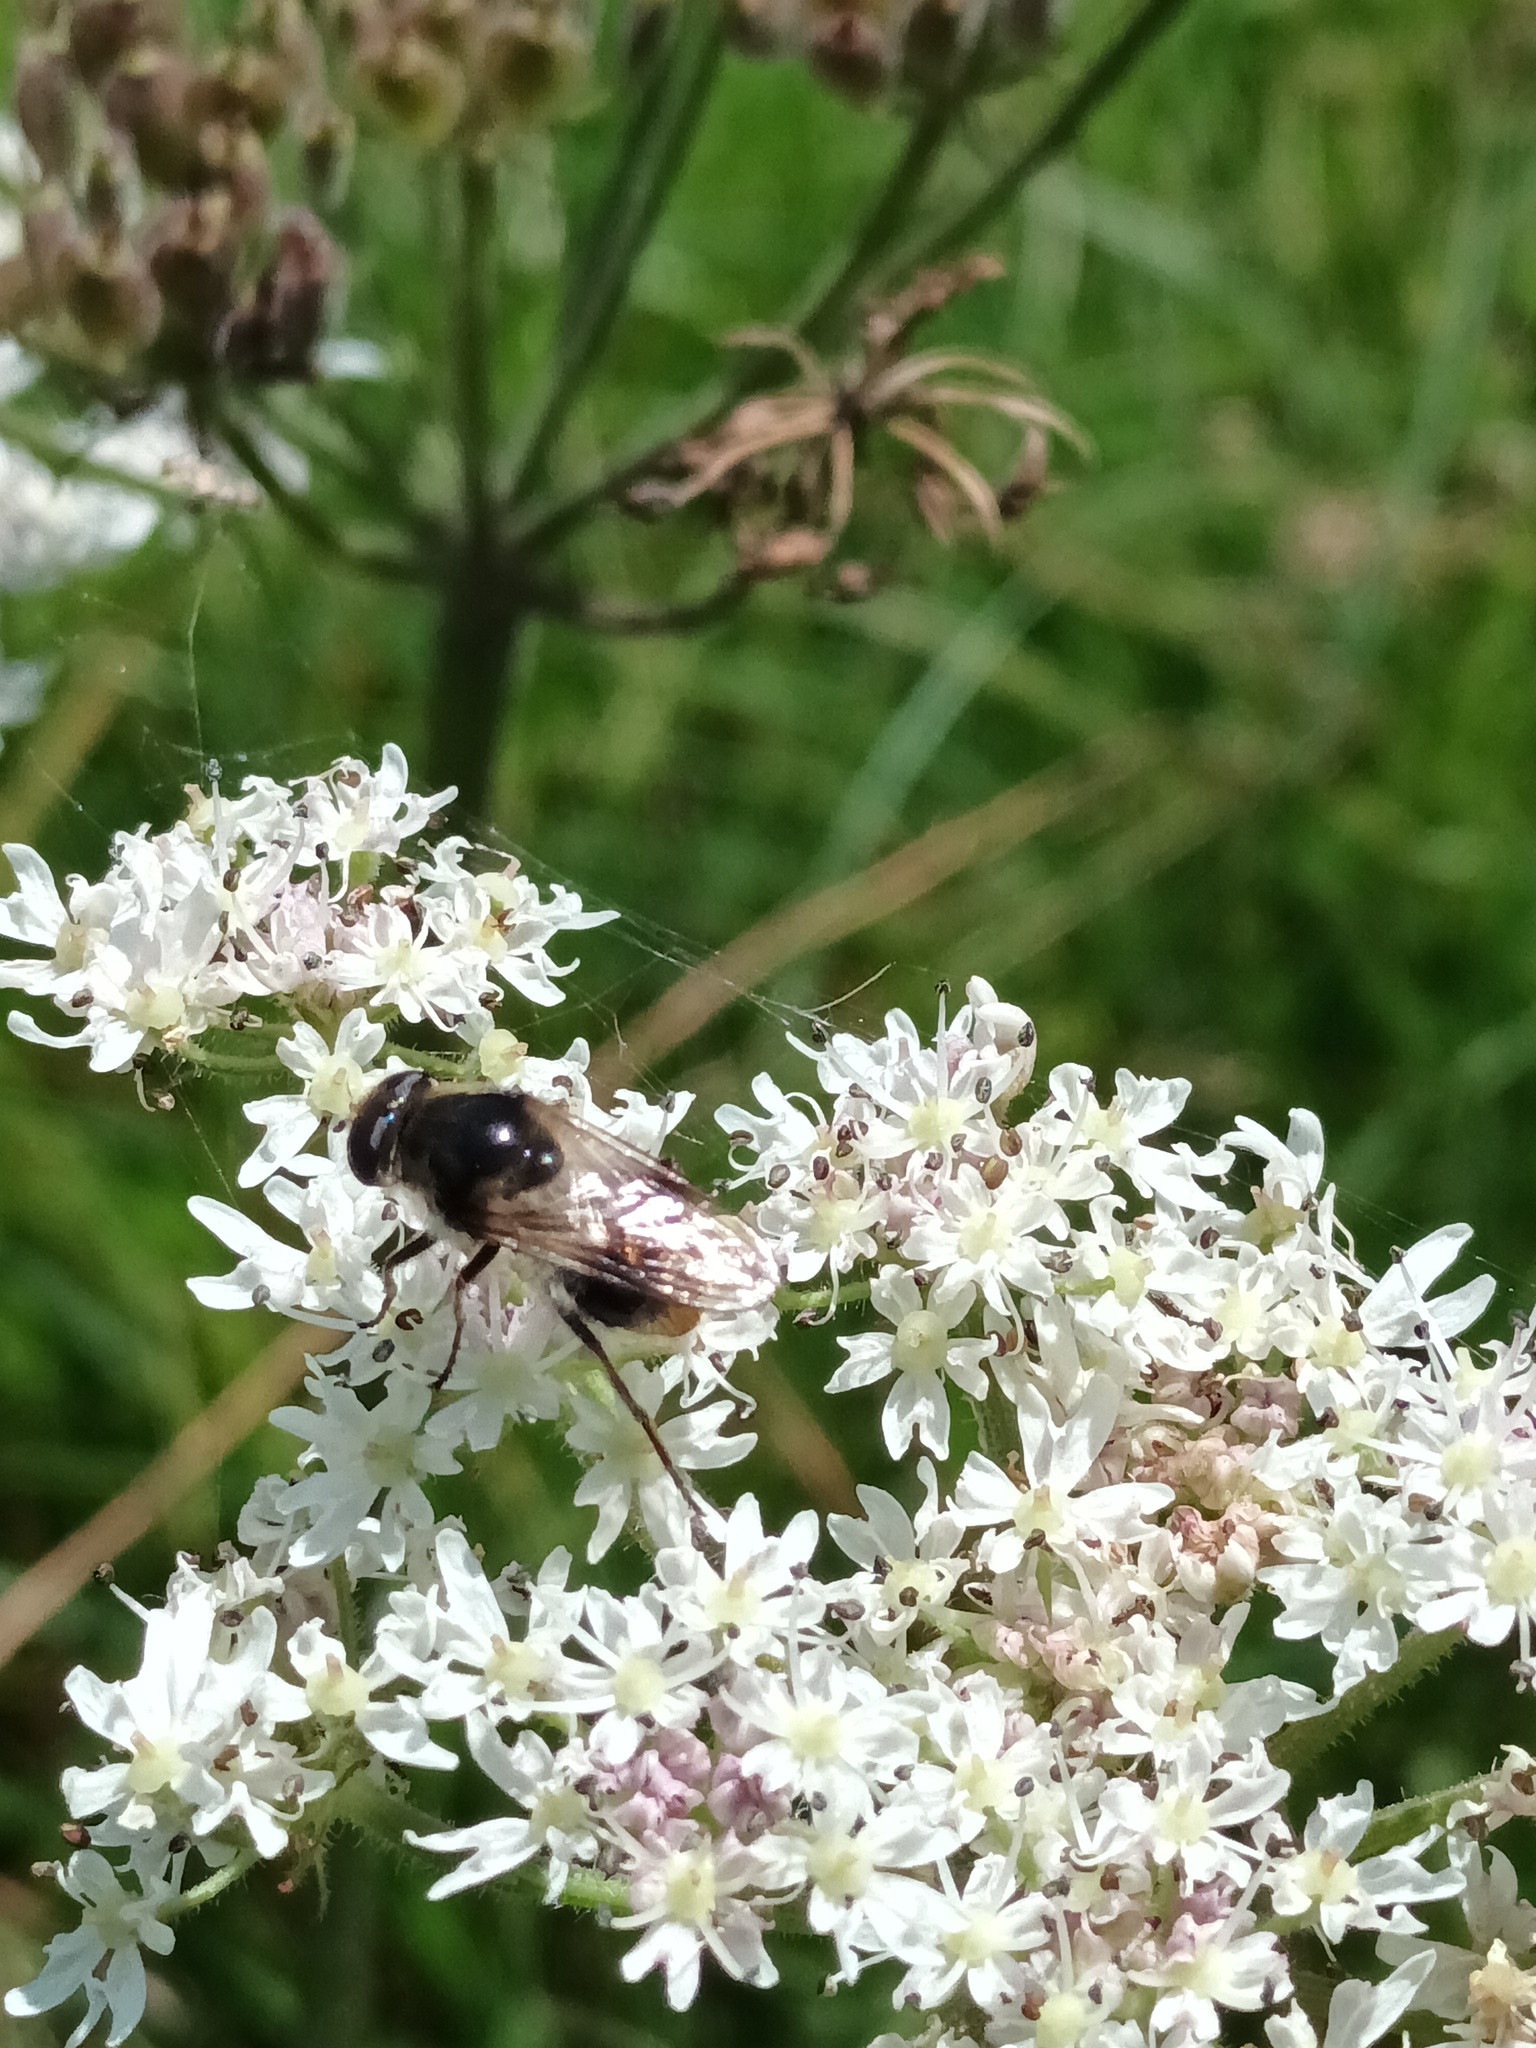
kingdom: Animalia
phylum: Arthropoda
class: Insecta
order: Diptera
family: Syrphidae
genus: Cheilosia
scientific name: Cheilosia illustrata
